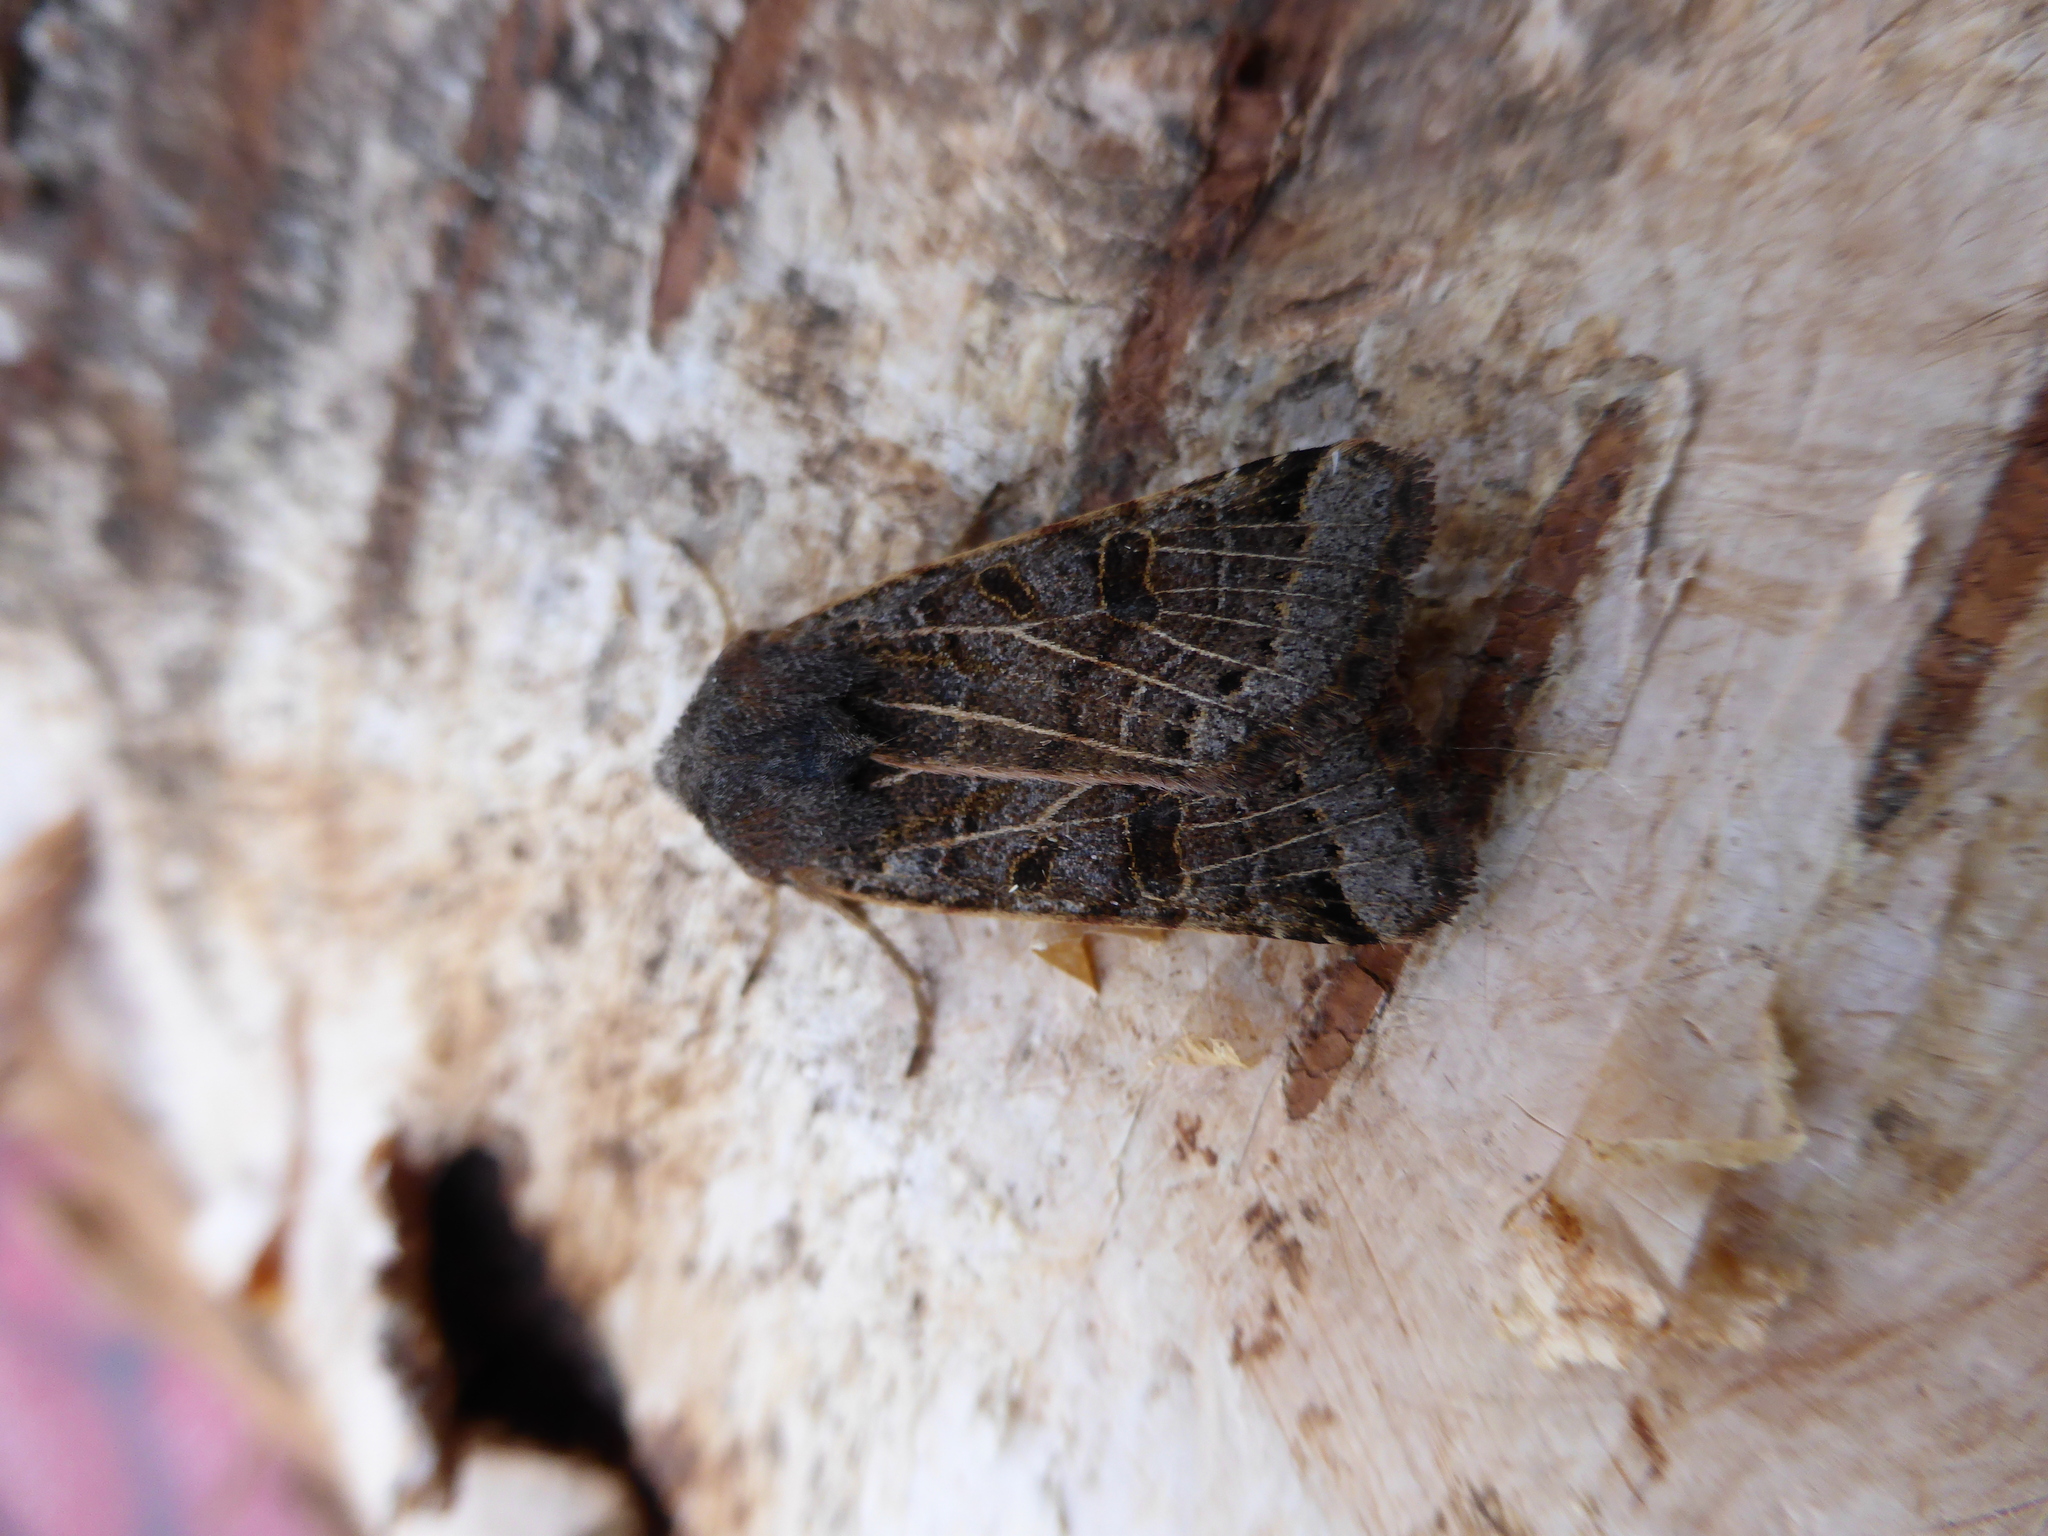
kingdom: Animalia
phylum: Arthropoda
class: Insecta
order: Lepidoptera
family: Noctuidae
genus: Agrochola
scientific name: Agrochola lunosa
